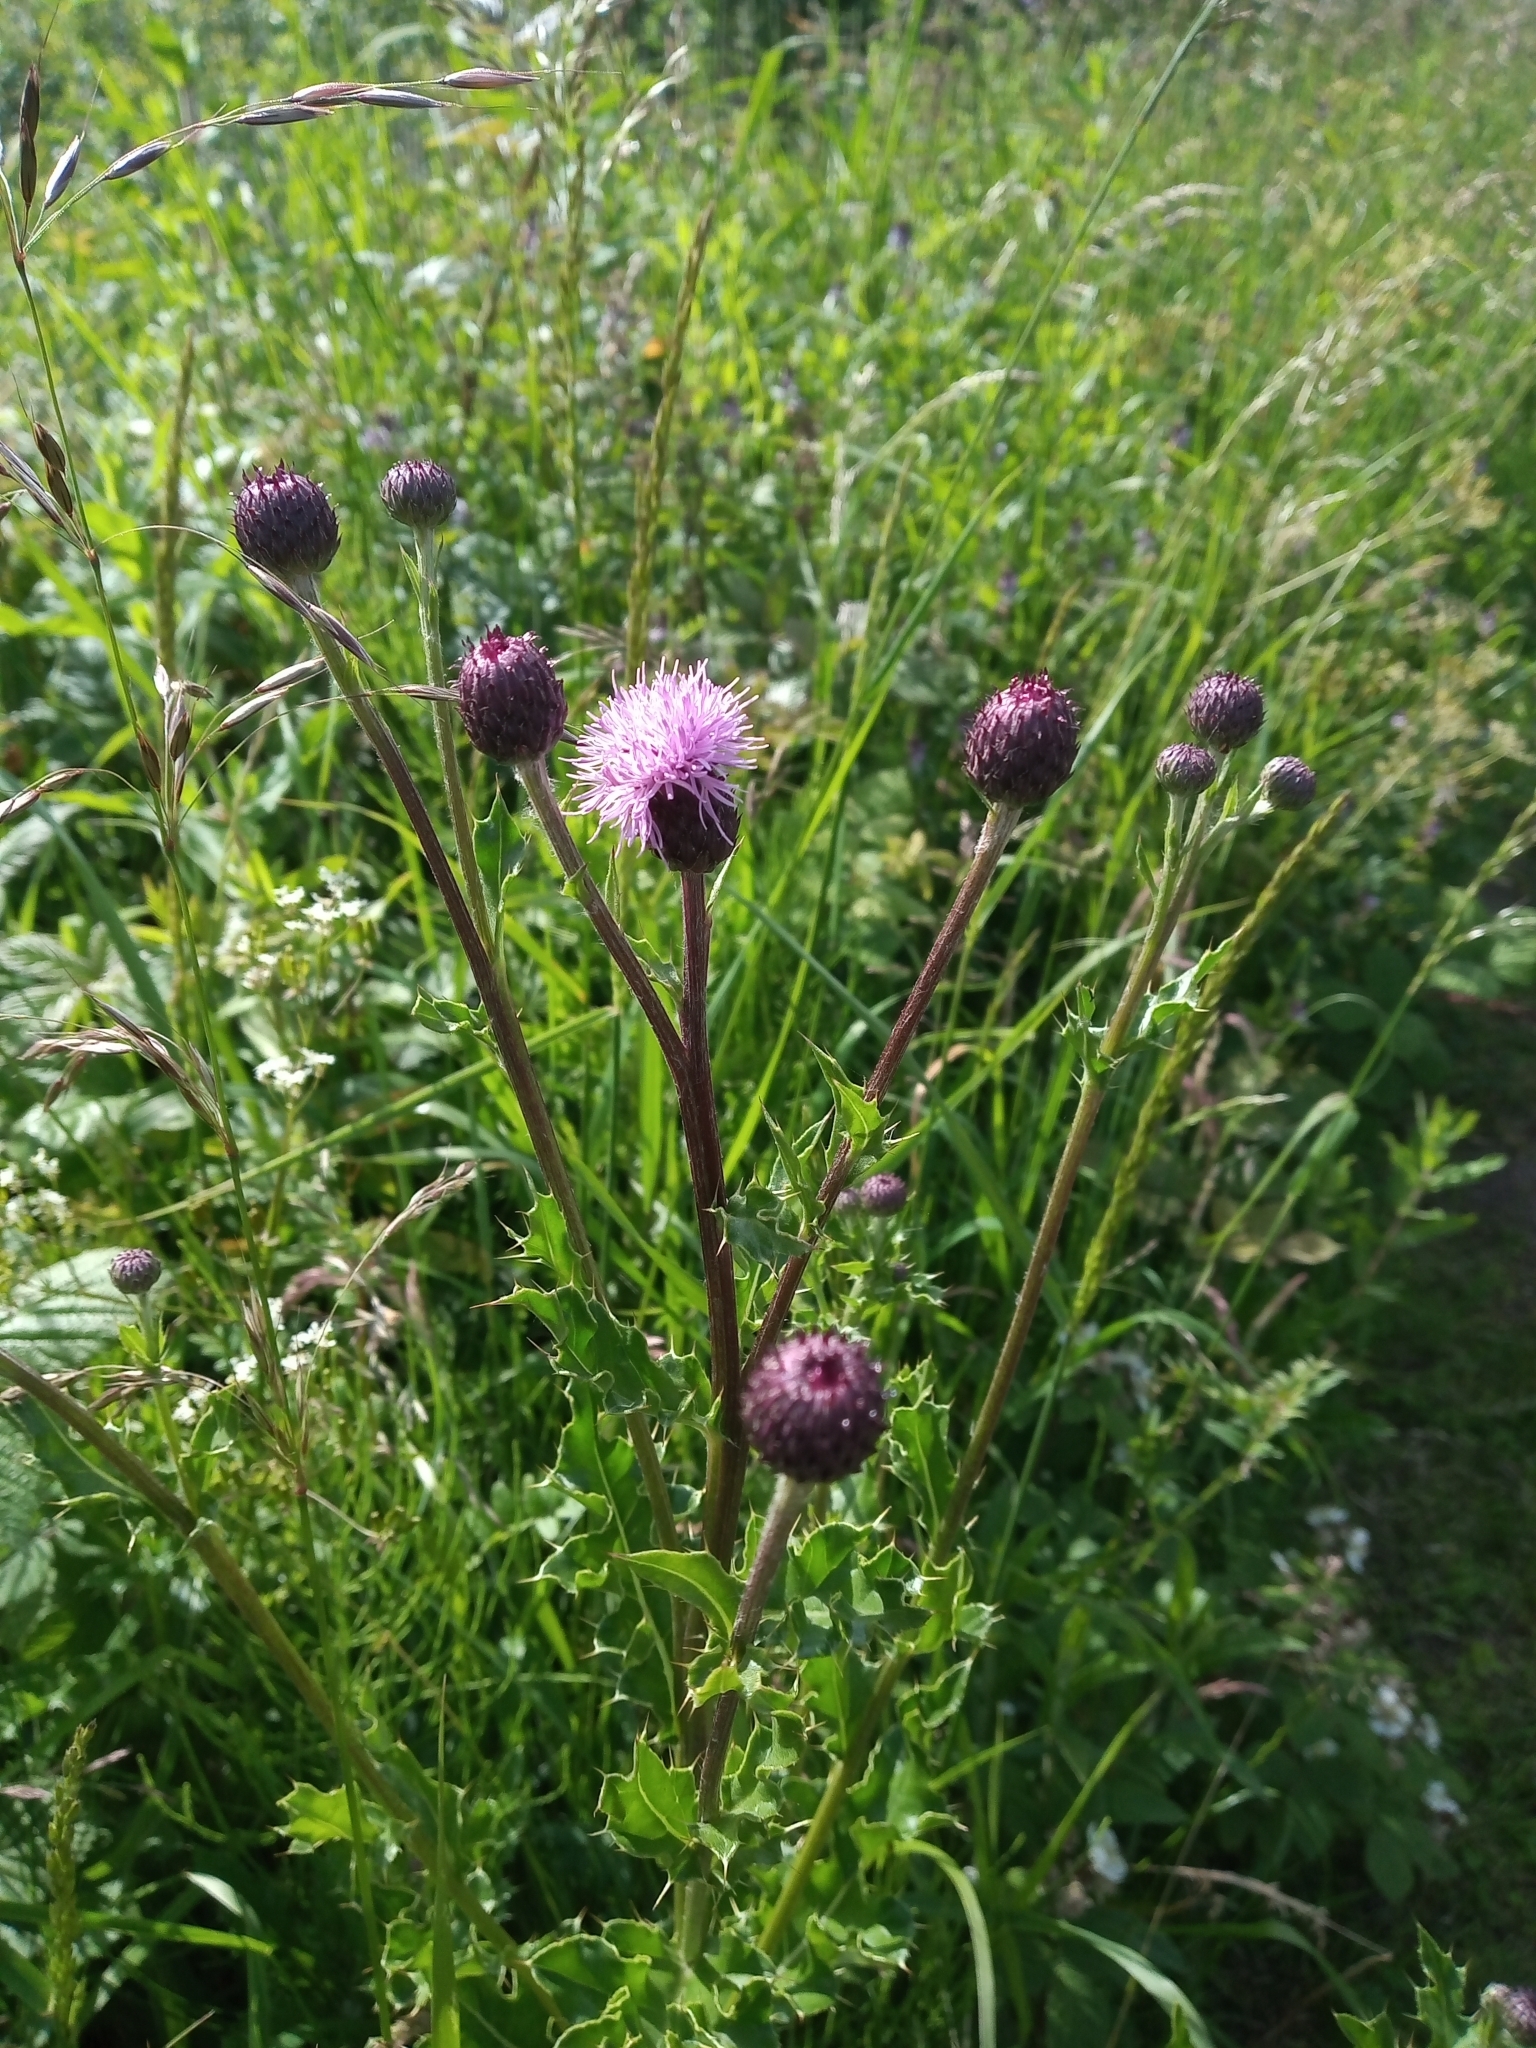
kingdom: Plantae
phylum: Tracheophyta
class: Magnoliopsida
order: Asterales
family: Asteraceae
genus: Cirsium
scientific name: Cirsium arvense
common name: Creeping thistle
